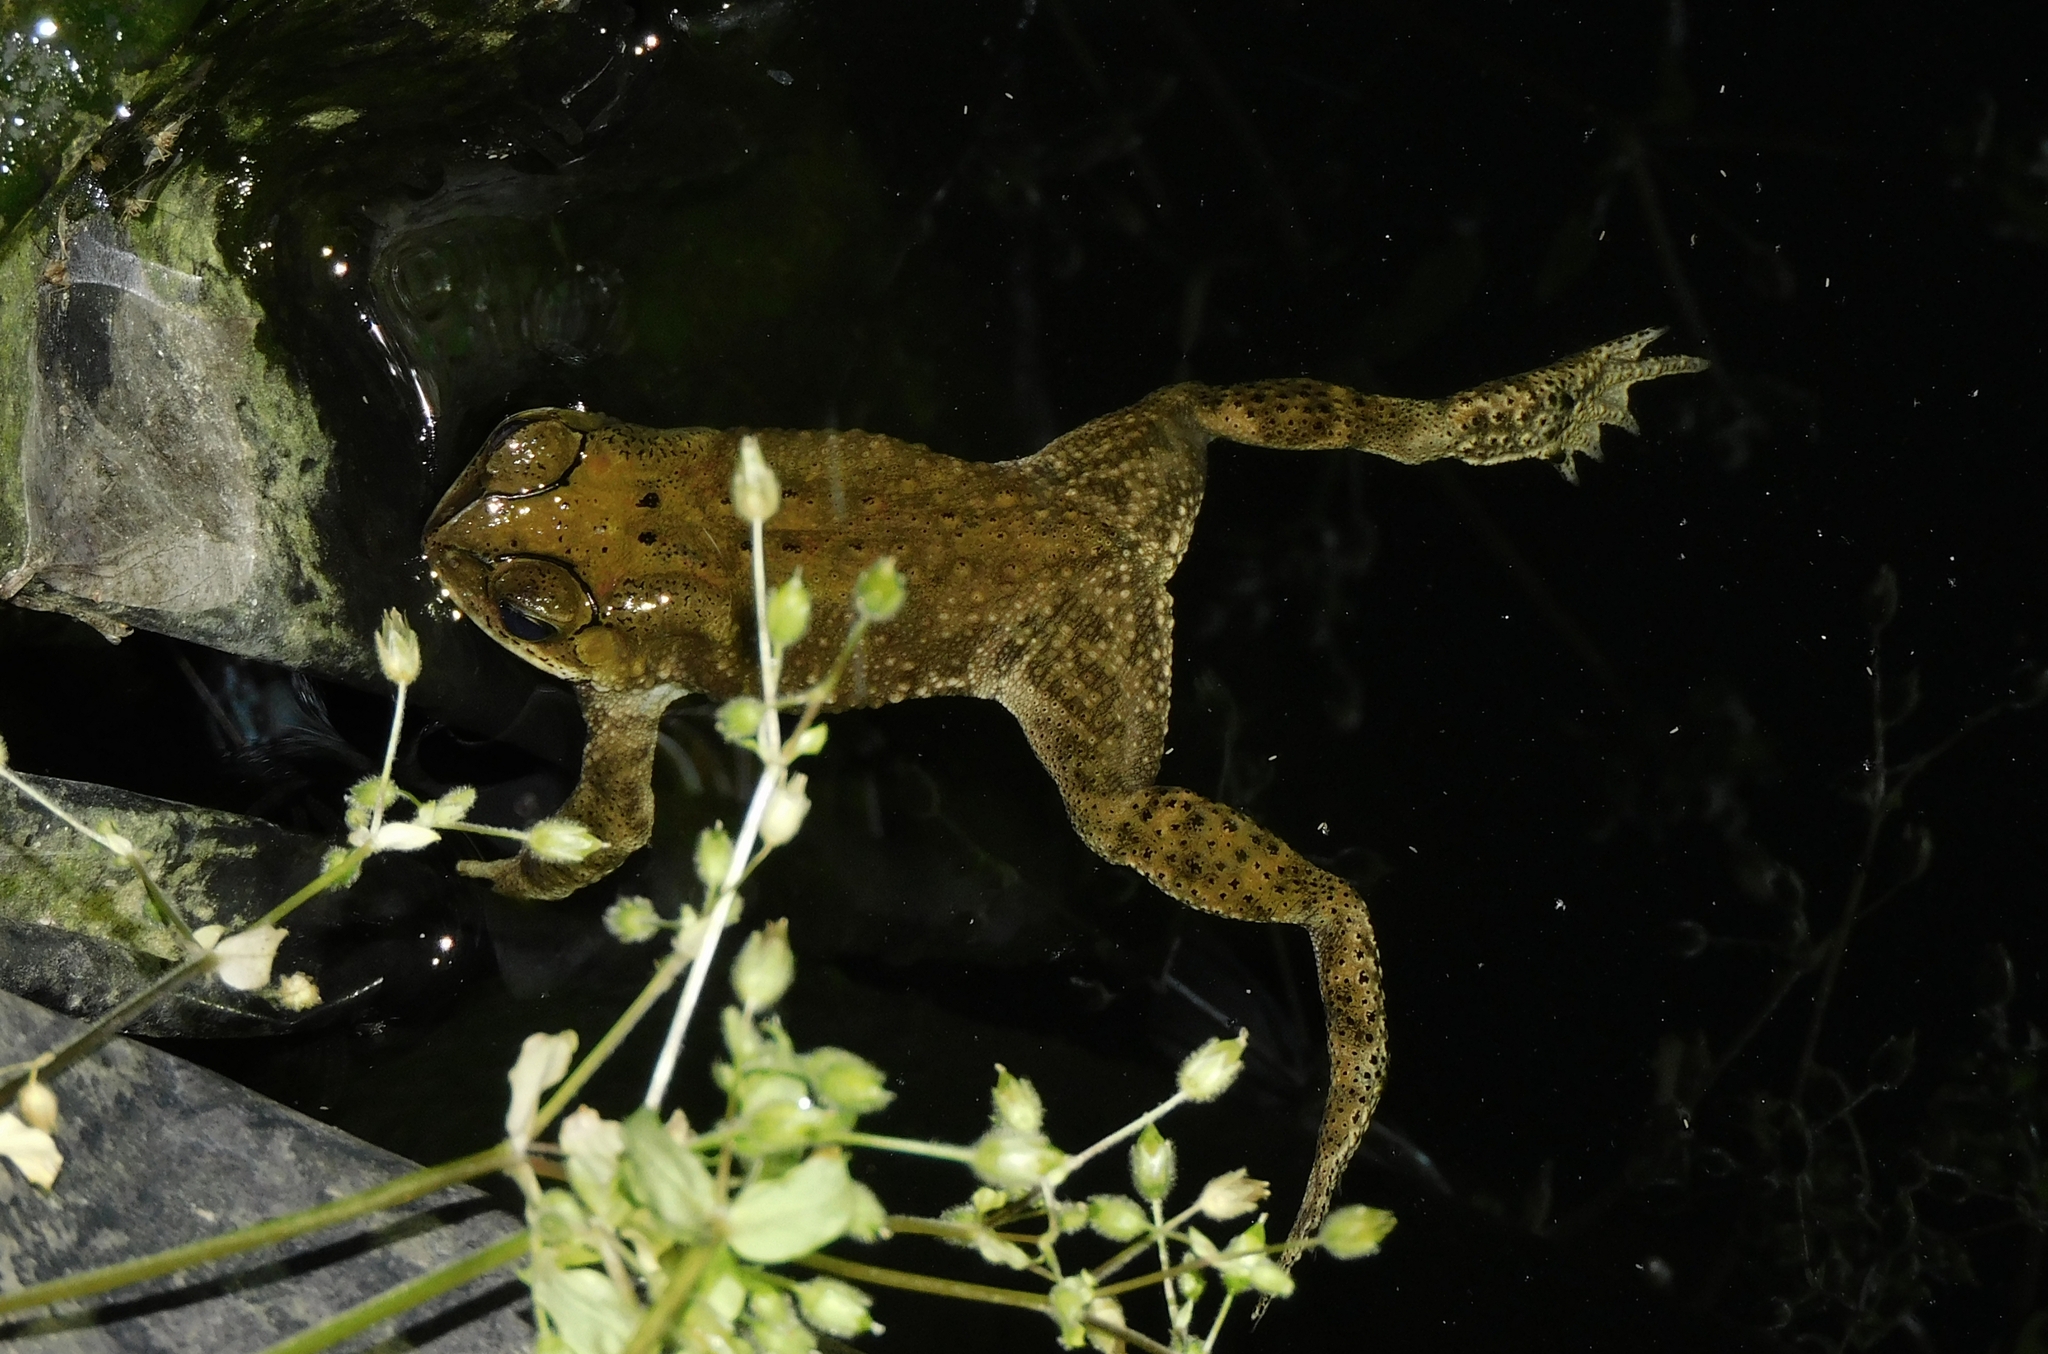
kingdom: Animalia
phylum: Chordata
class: Amphibia
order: Anura
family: Bufonidae
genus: Duttaphrynus
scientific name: Duttaphrynus melanostictus
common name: Common sunda toad
